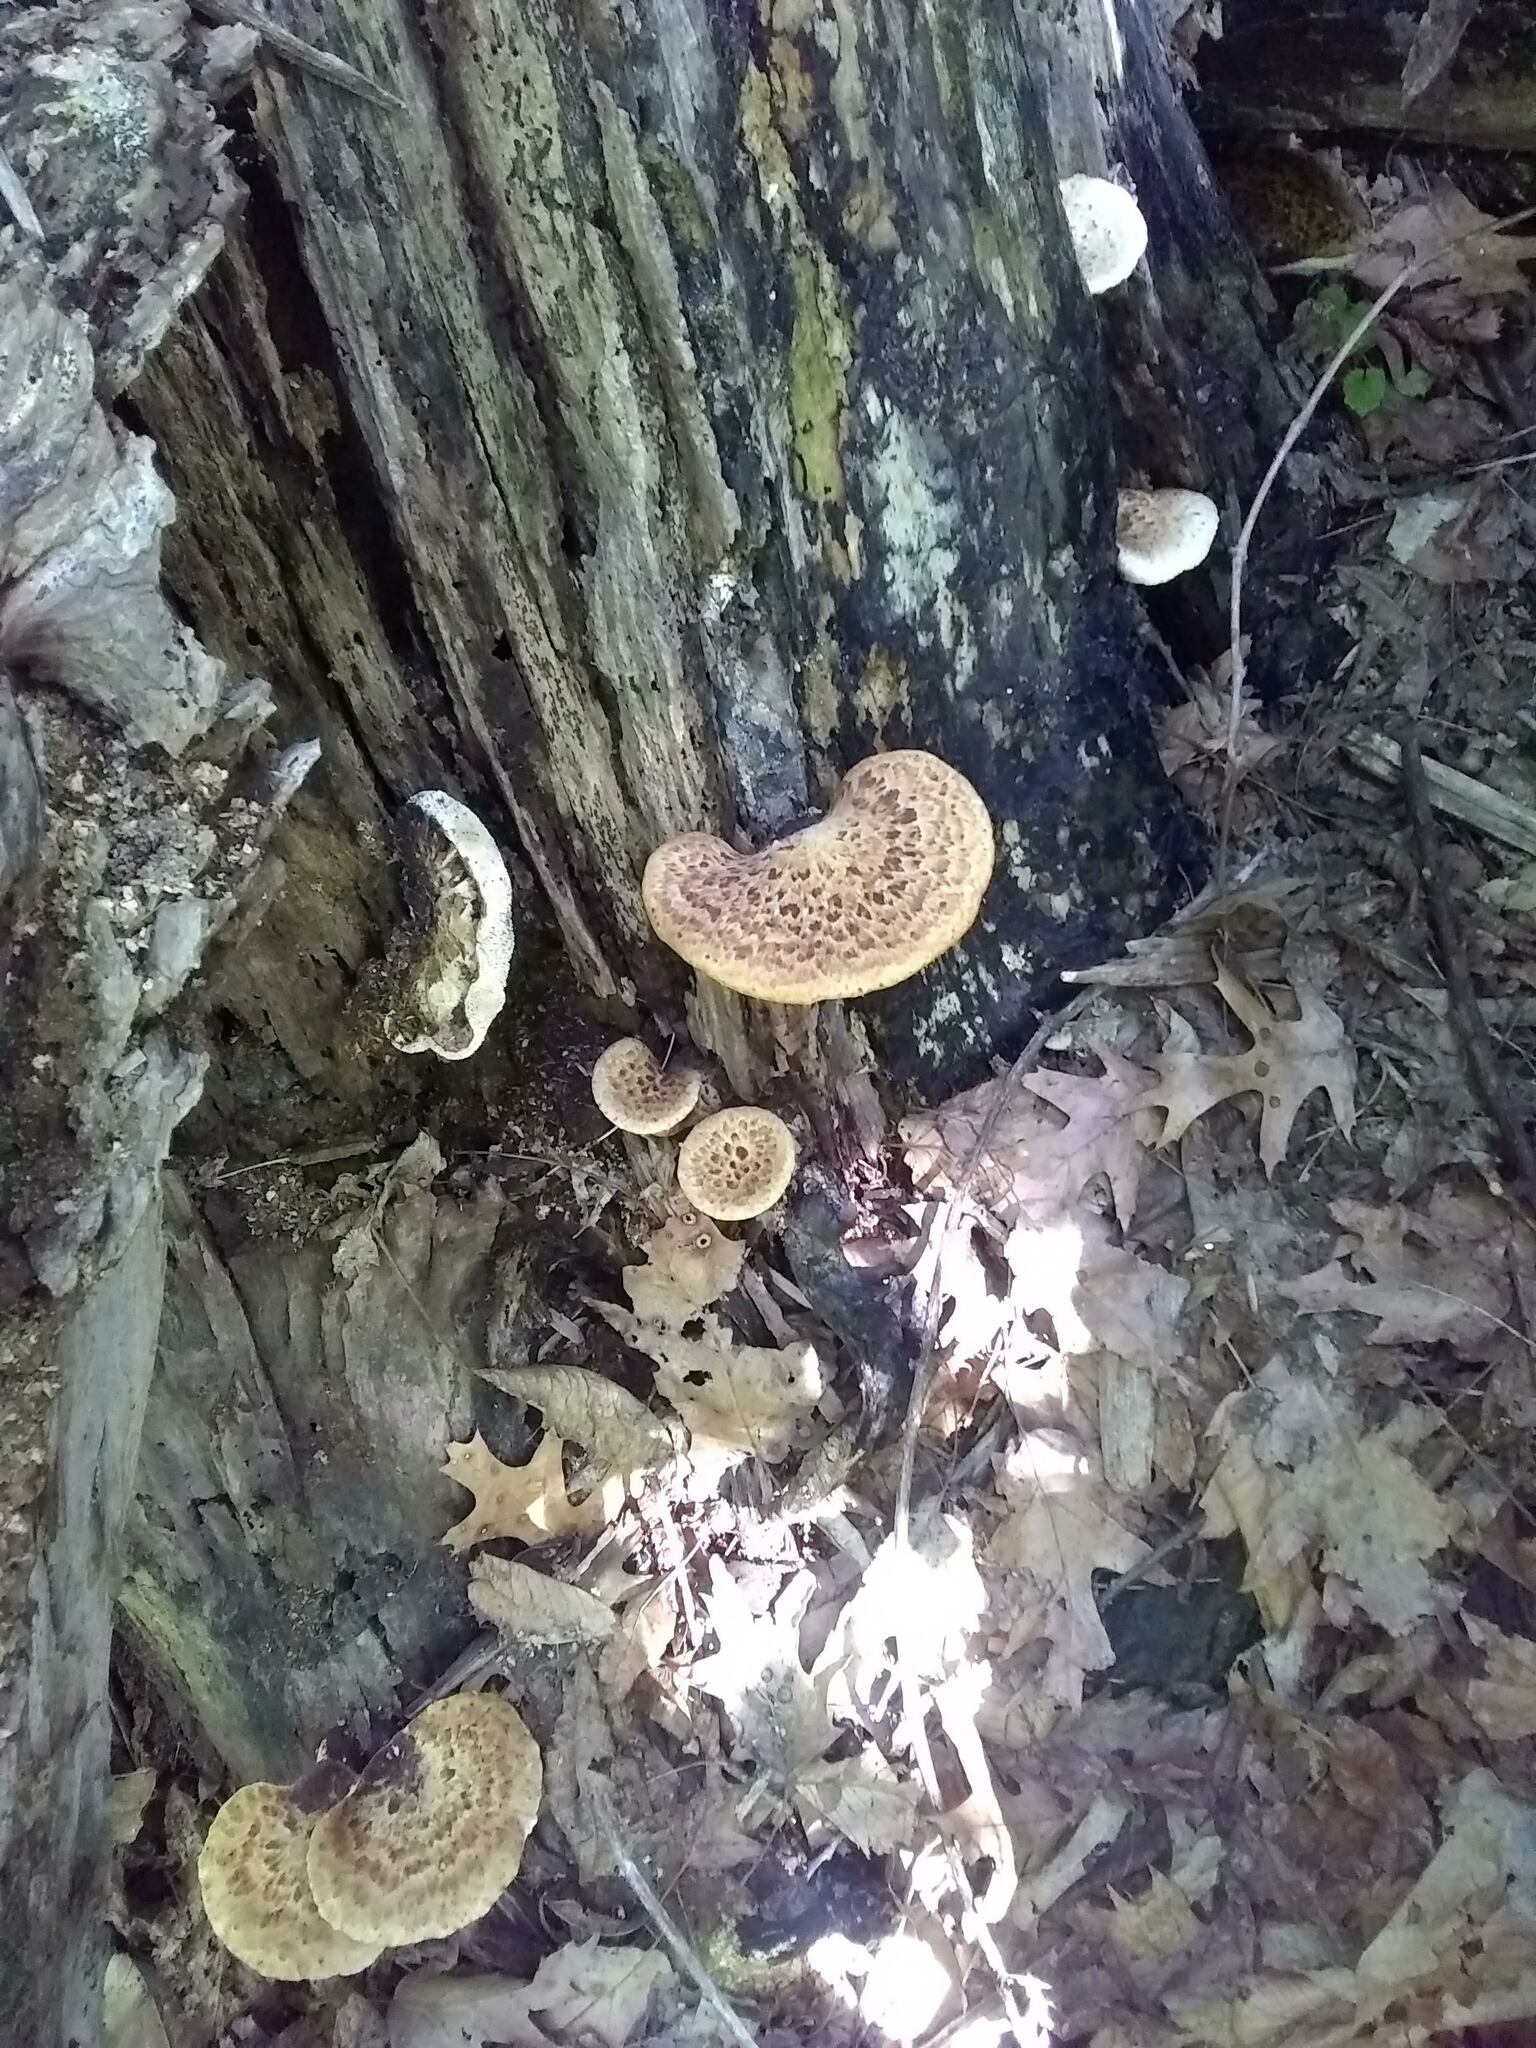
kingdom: Fungi
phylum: Basidiomycota
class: Agaricomycetes
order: Polyporales
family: Polyporaceae
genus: Cerioporus
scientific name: Cerioporus squamosus
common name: Dryad's saddle
